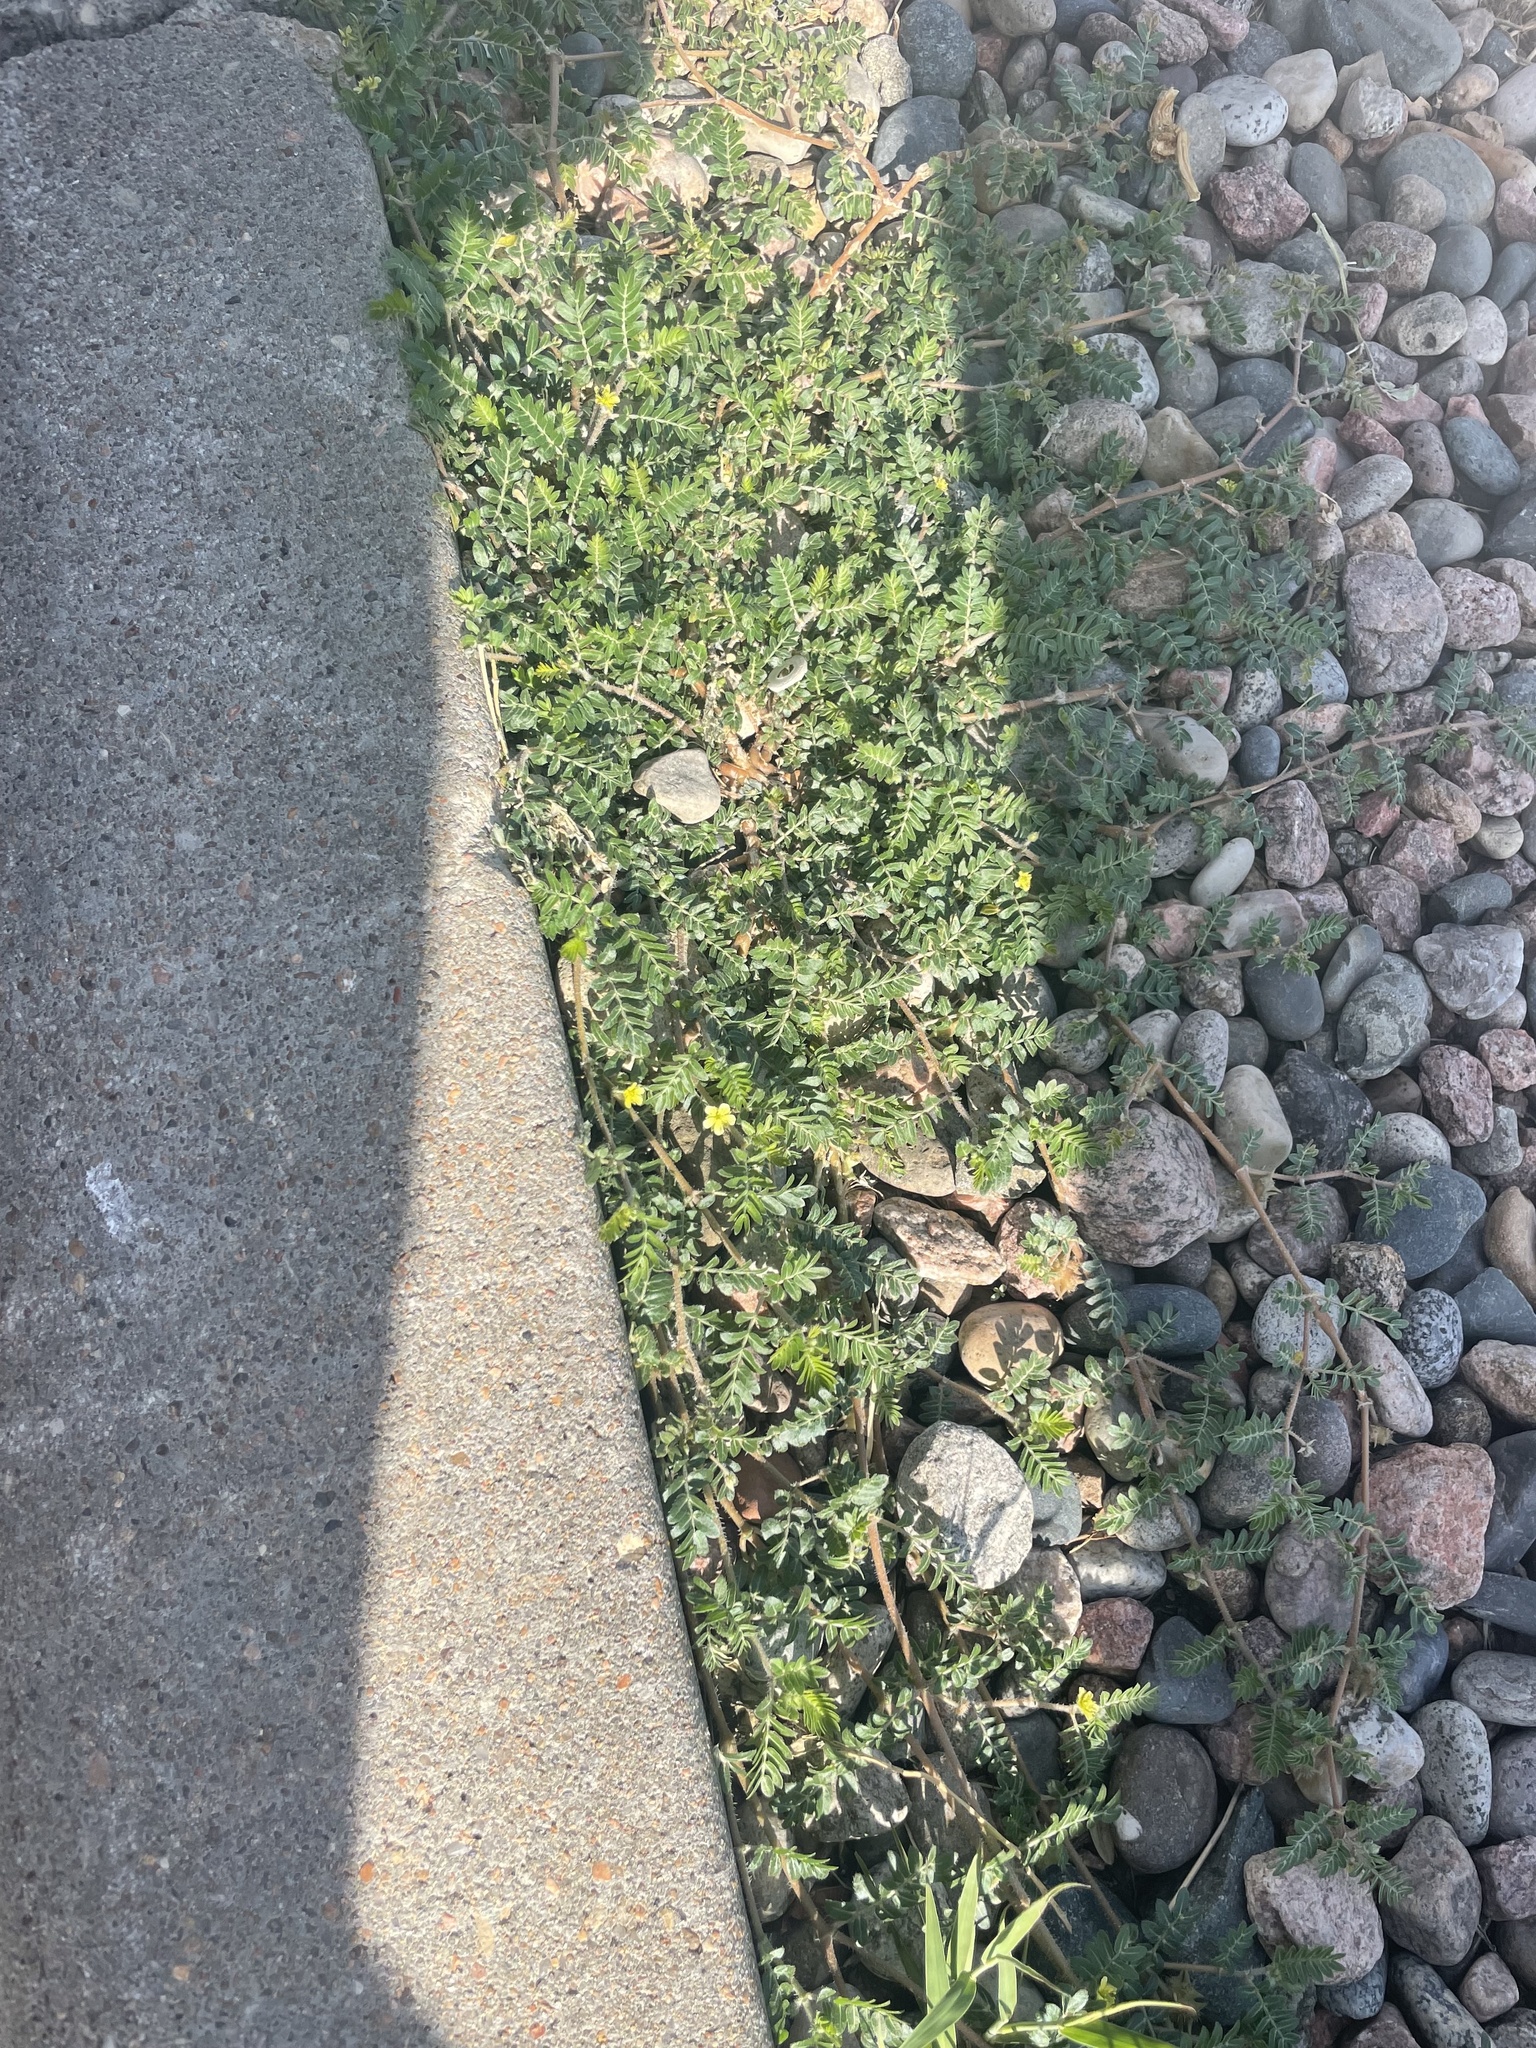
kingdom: Plantae
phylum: Tracheophyta
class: Magnoliopsida
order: Zygophyllales
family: Zygophyllaceae
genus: Tribulus
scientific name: Tribulus terrestris
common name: Puncturevine
